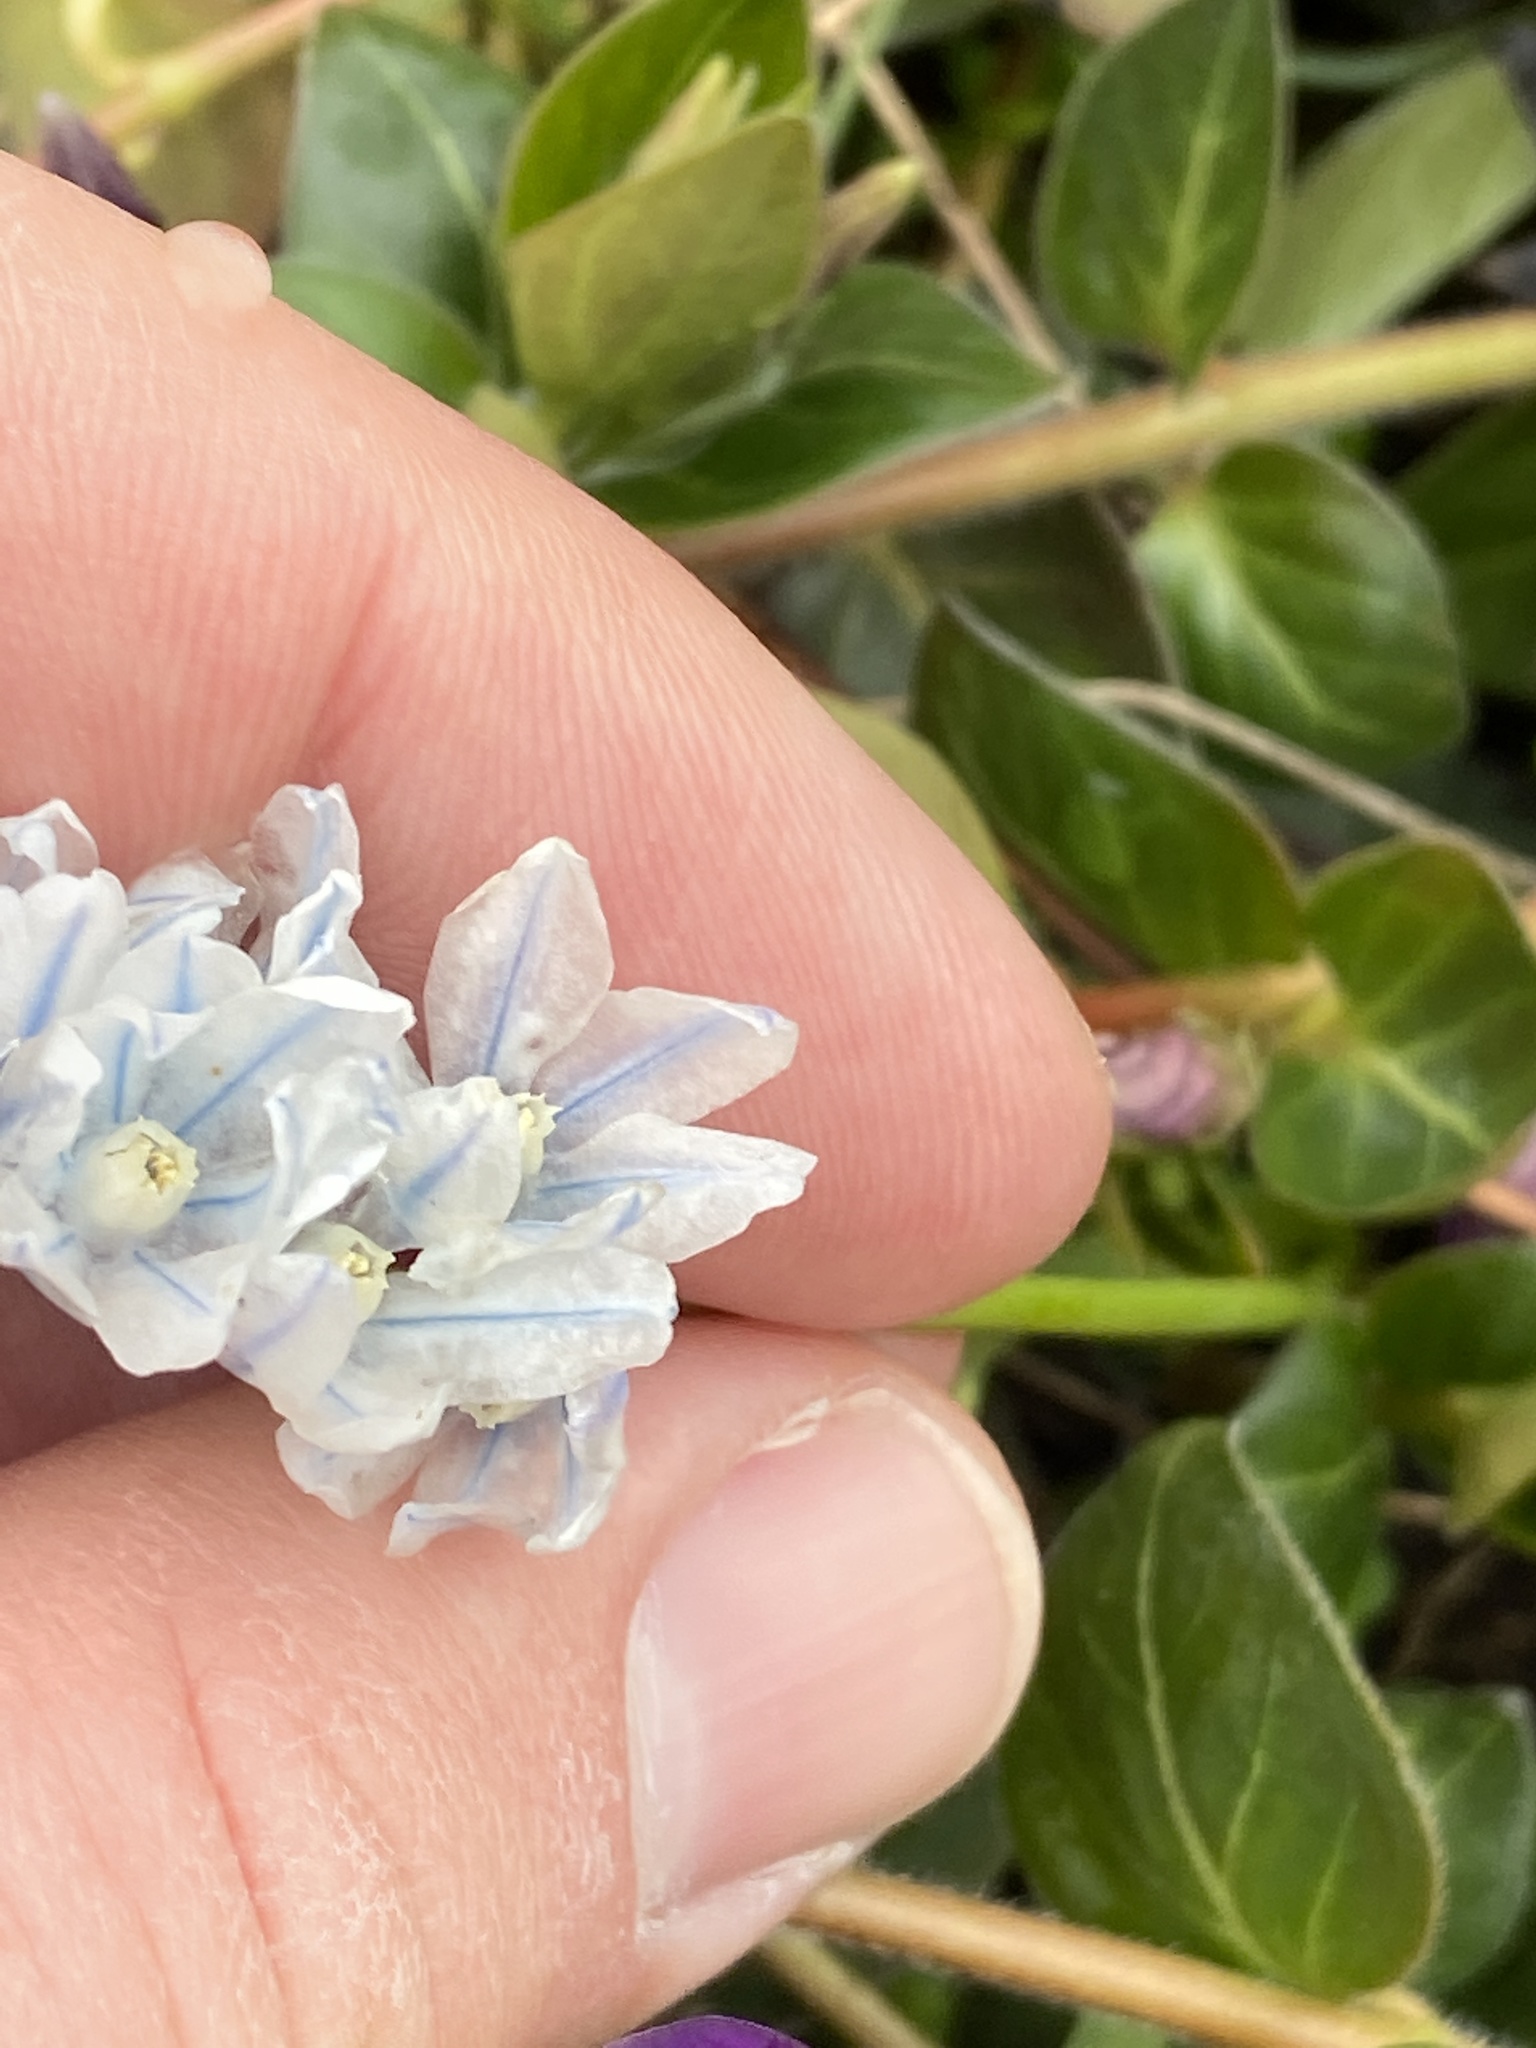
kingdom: Plantae
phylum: Tracheophyta
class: Liliopsida
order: Asparagales
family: Asparagaceae
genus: Puschkinia
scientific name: Puschkinia scilloides
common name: Striped squill
